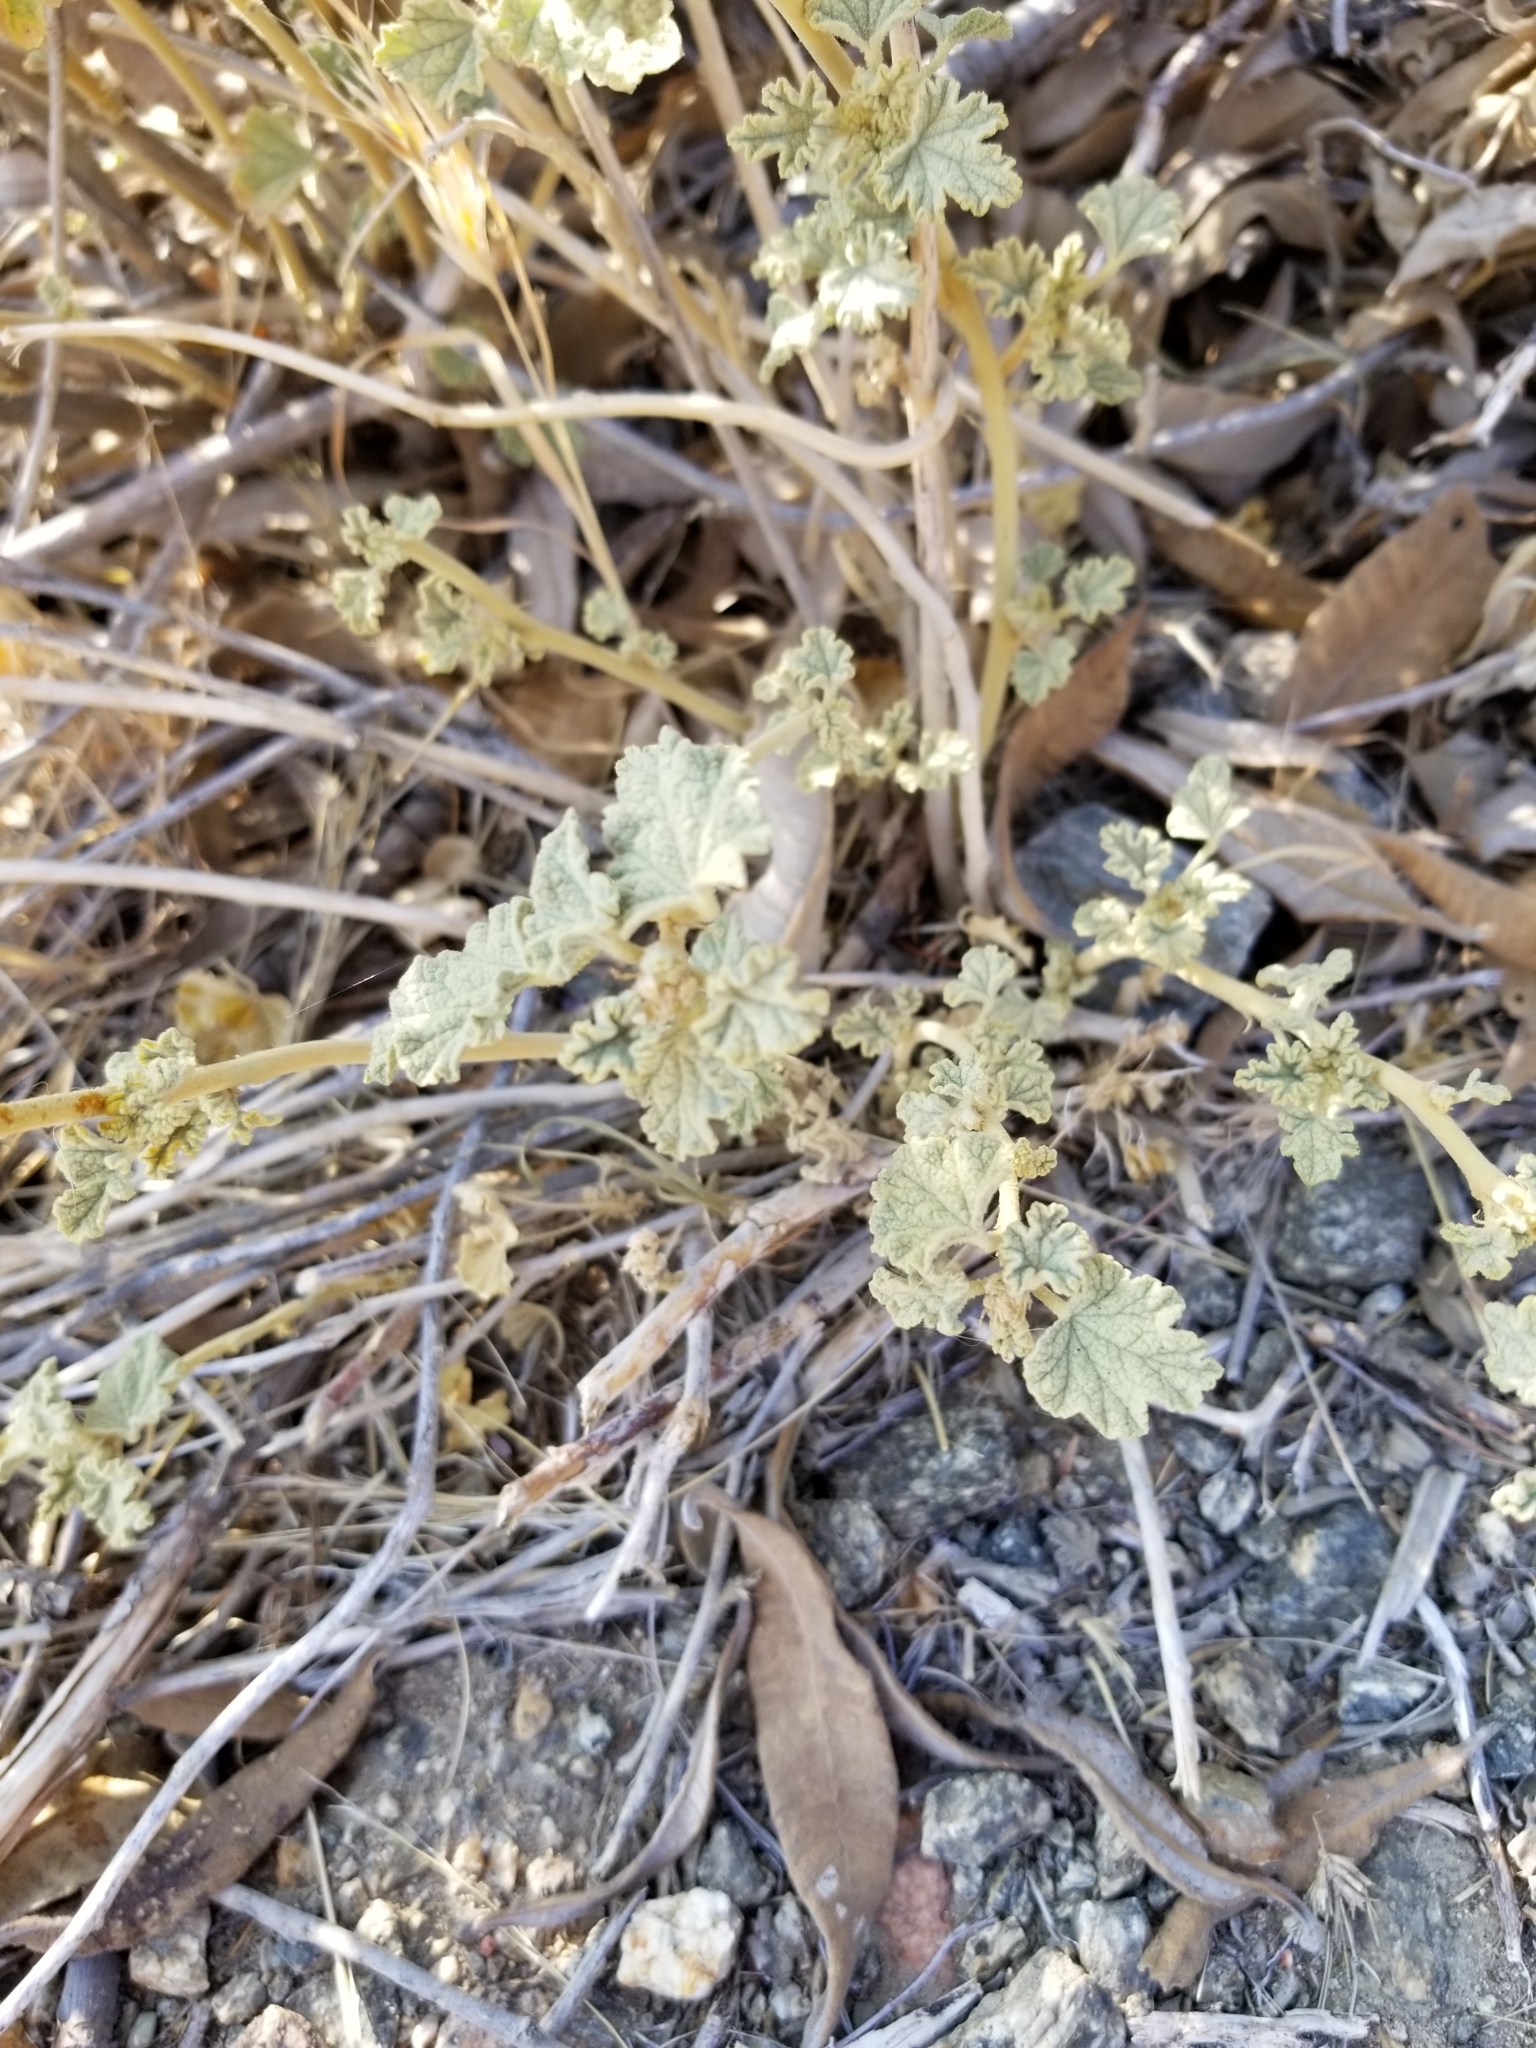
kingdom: Plantae
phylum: Tracheophyta
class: Magnoliopsida
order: Malvales
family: Malvaceae
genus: Sphaeralcea
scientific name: Sphaeralcea ambigua
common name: Apricot globe-mallow
